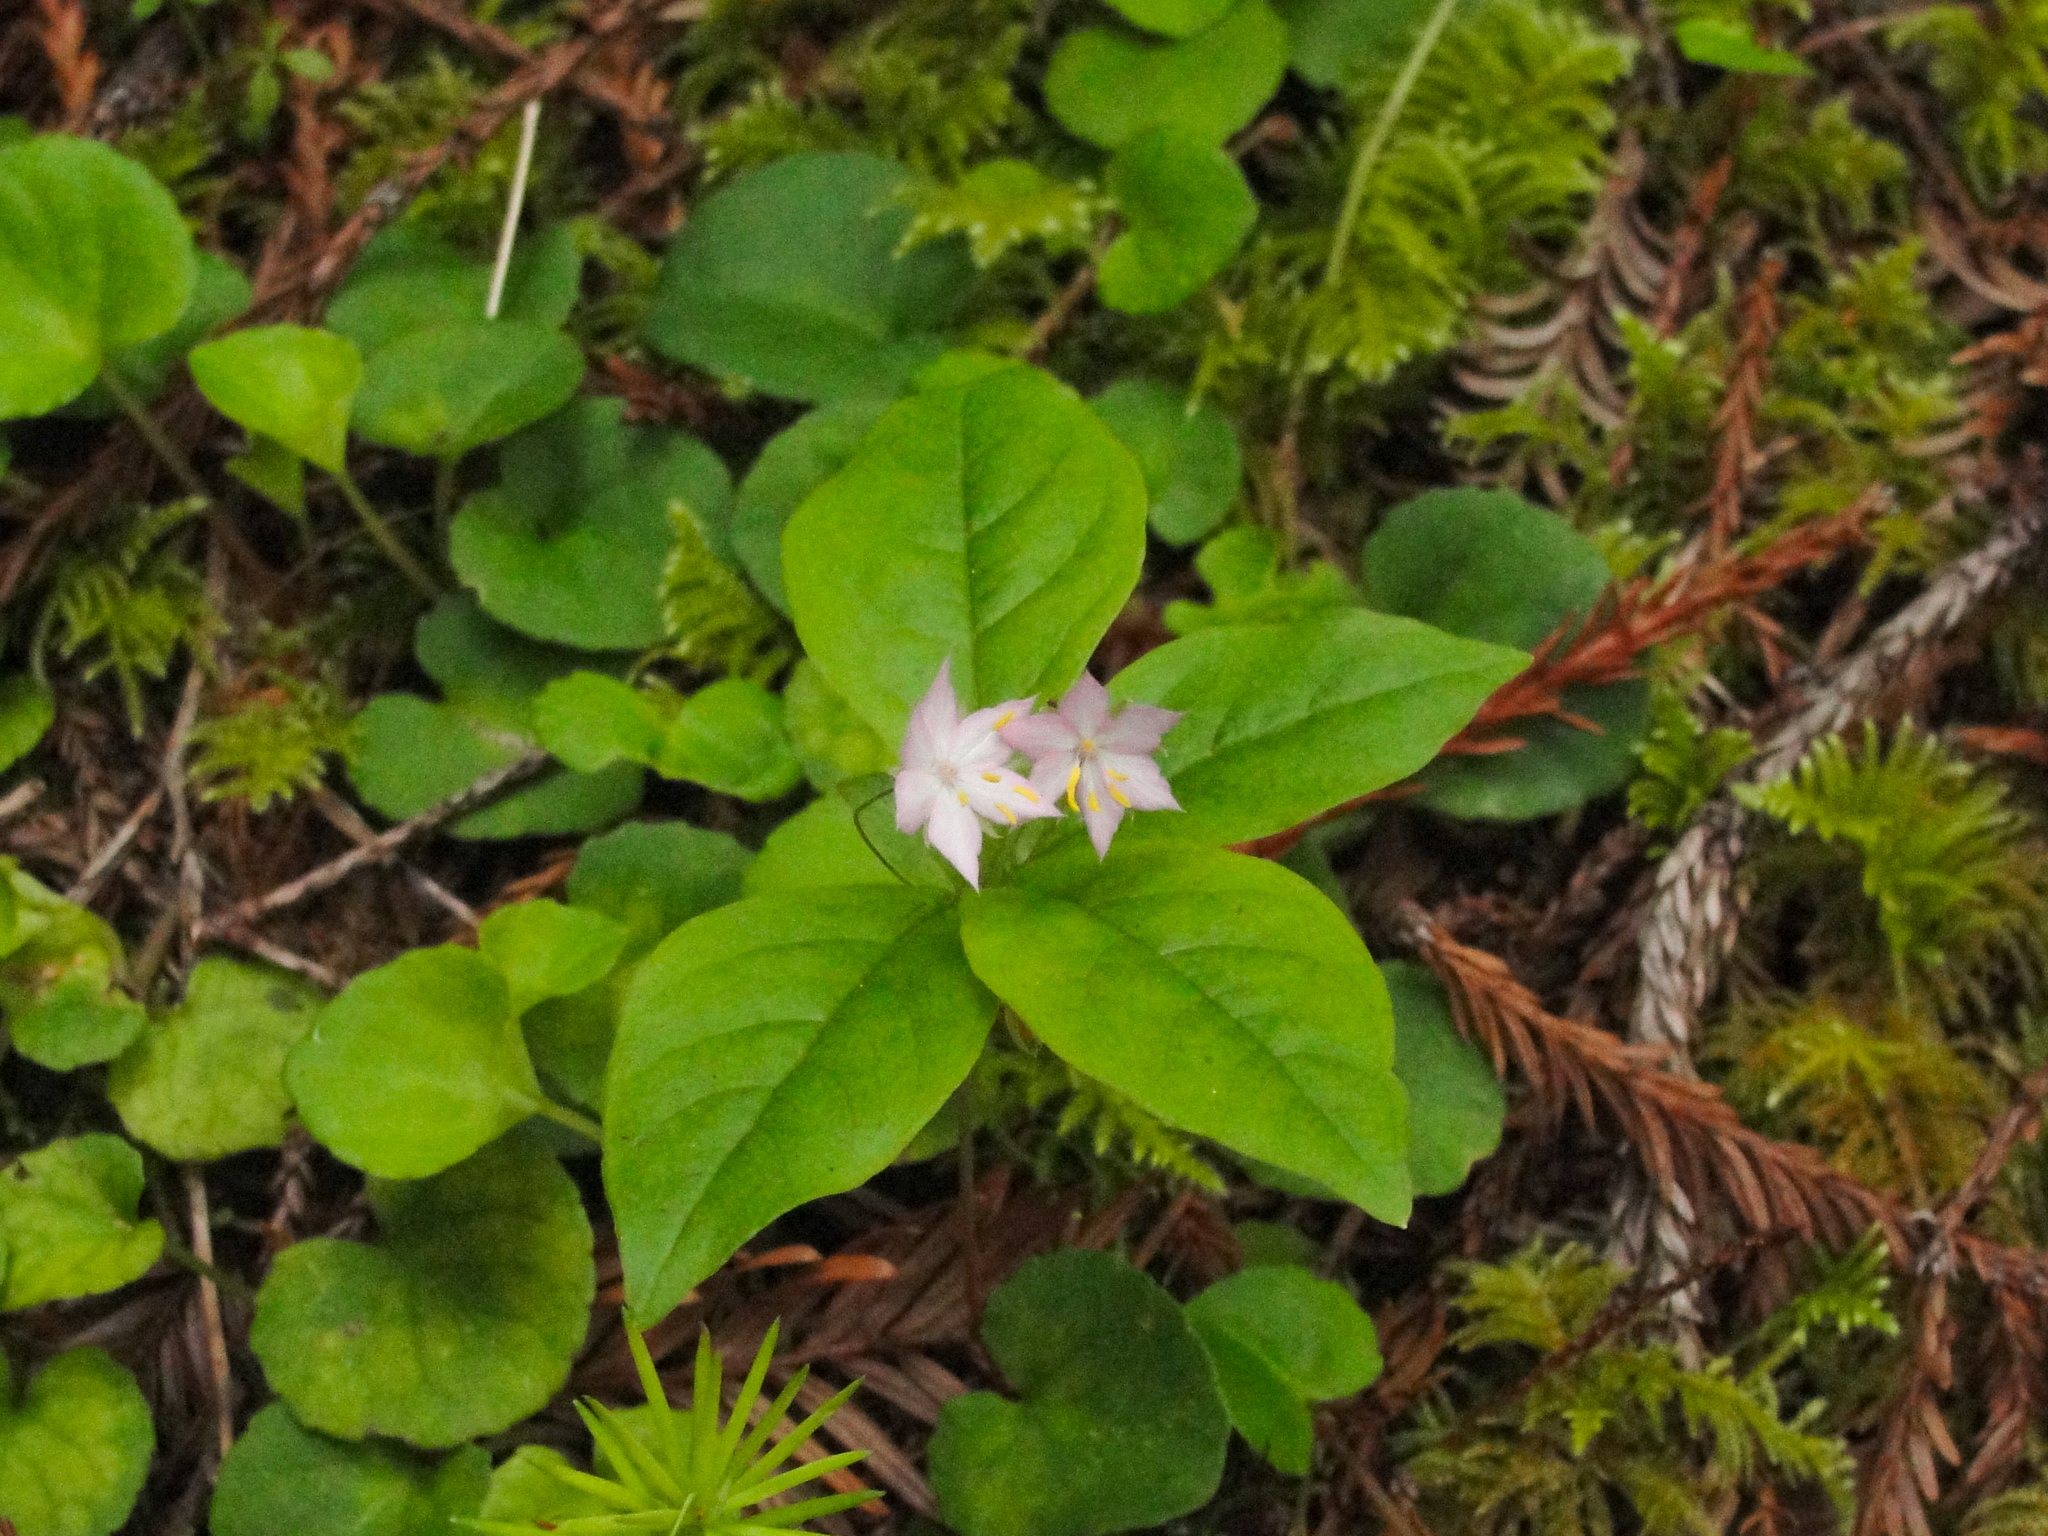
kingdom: Plantae
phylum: Tracheophyta
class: Magnoliopsida
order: Ericales
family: Primulaceae
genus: Lysimachia
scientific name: Lysimachia latifolia
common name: Pacific starflower
